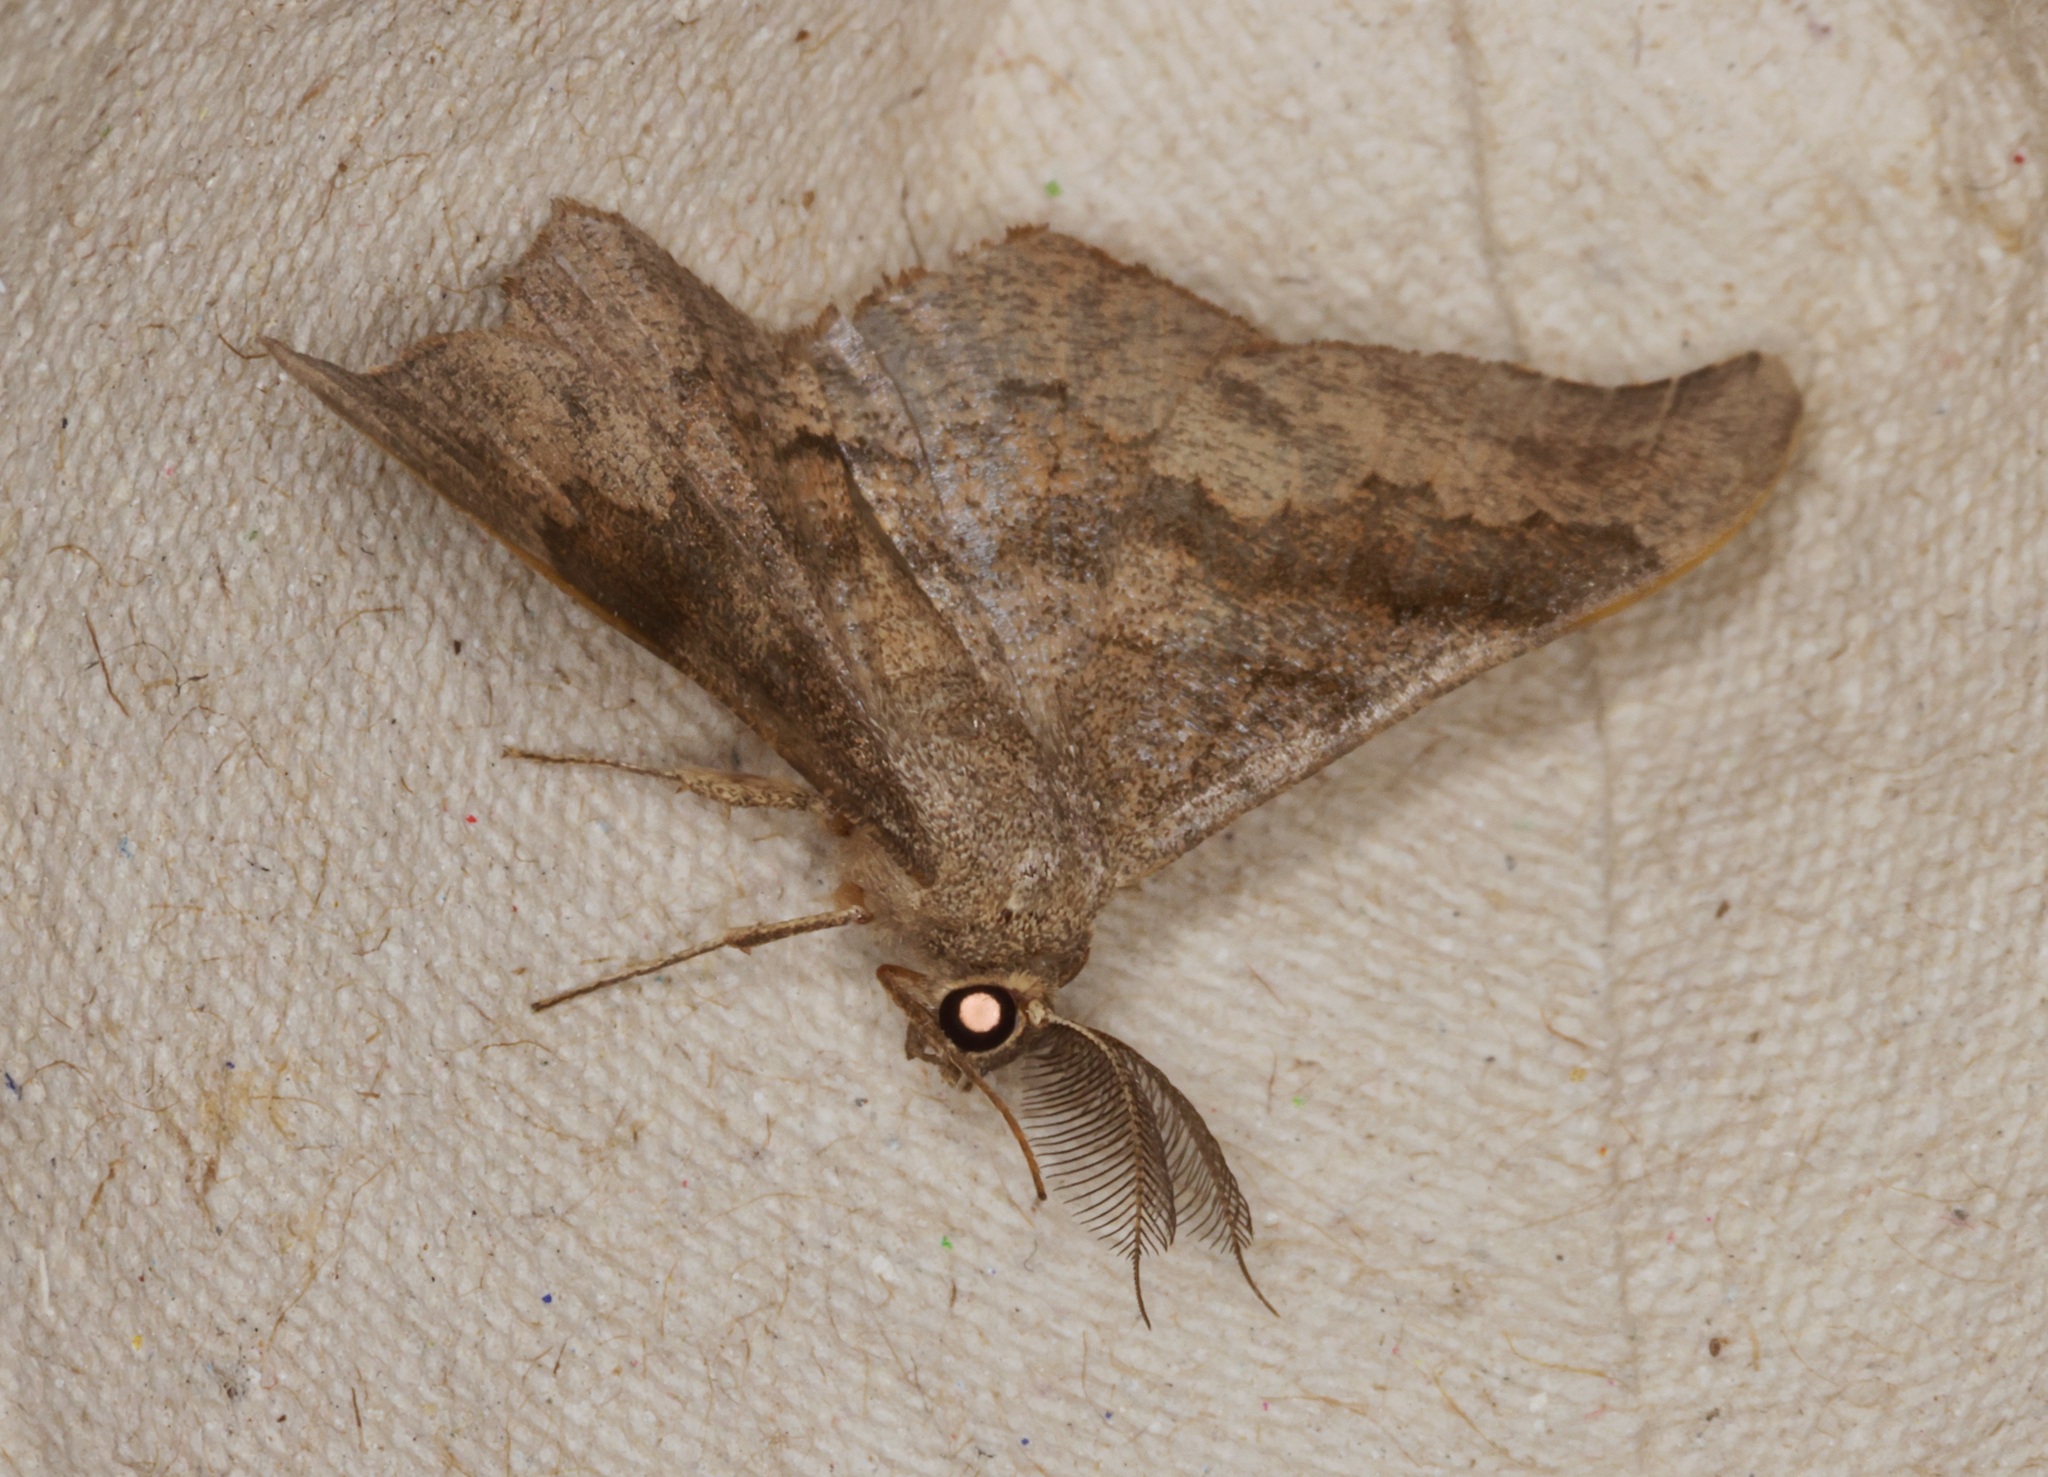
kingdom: Animalia
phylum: Arthropoda
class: Insecta
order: Lepidoptera
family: Geometridae
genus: Hyposidra
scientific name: Hyposidra talaca
